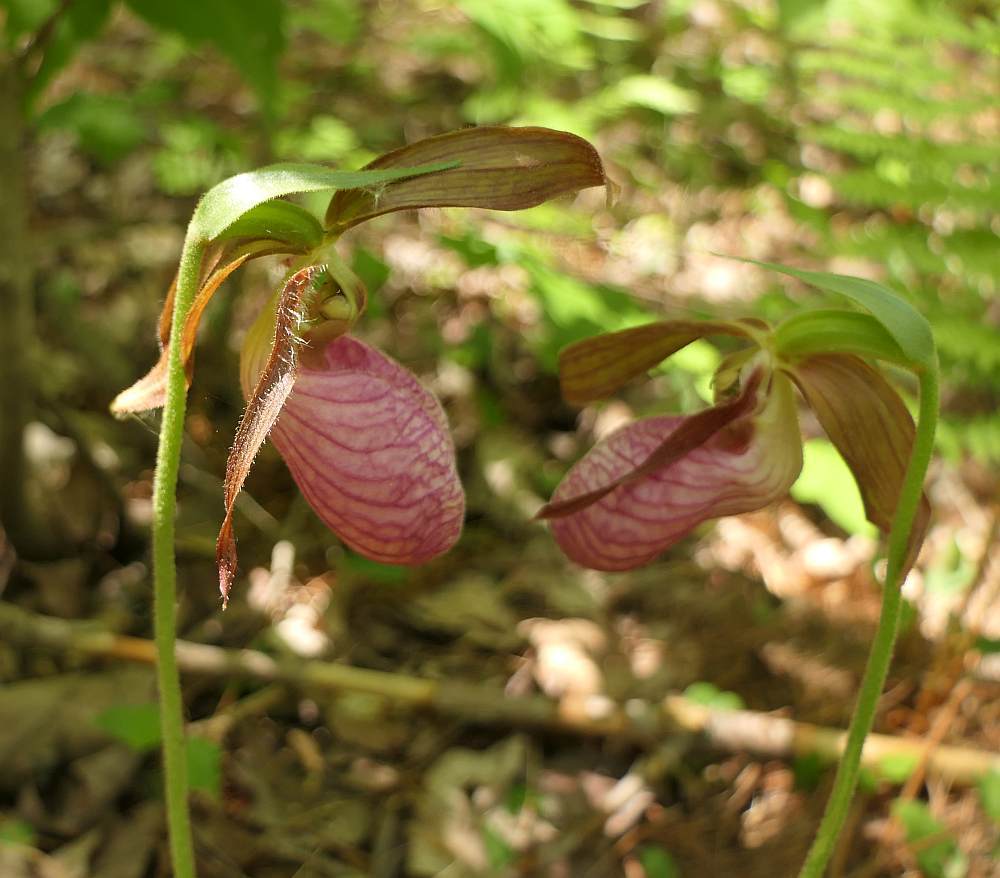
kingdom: Plantae
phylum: Tracheophyta
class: Liliopsida
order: Asparagales
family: Orchidaceae
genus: Cypripedium
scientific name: Cypripedium acaule
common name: Pink lady's-slipper
